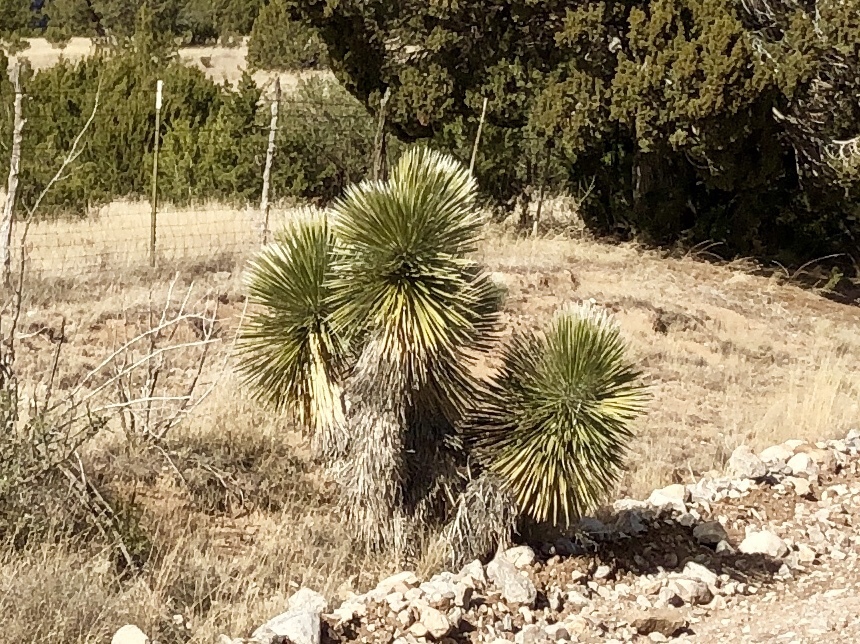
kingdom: Plantae
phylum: Tracheophyta
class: Liliopsida
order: Asparagales
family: Asparagaceae
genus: Yucca
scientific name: Yucca elata
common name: Palmella
